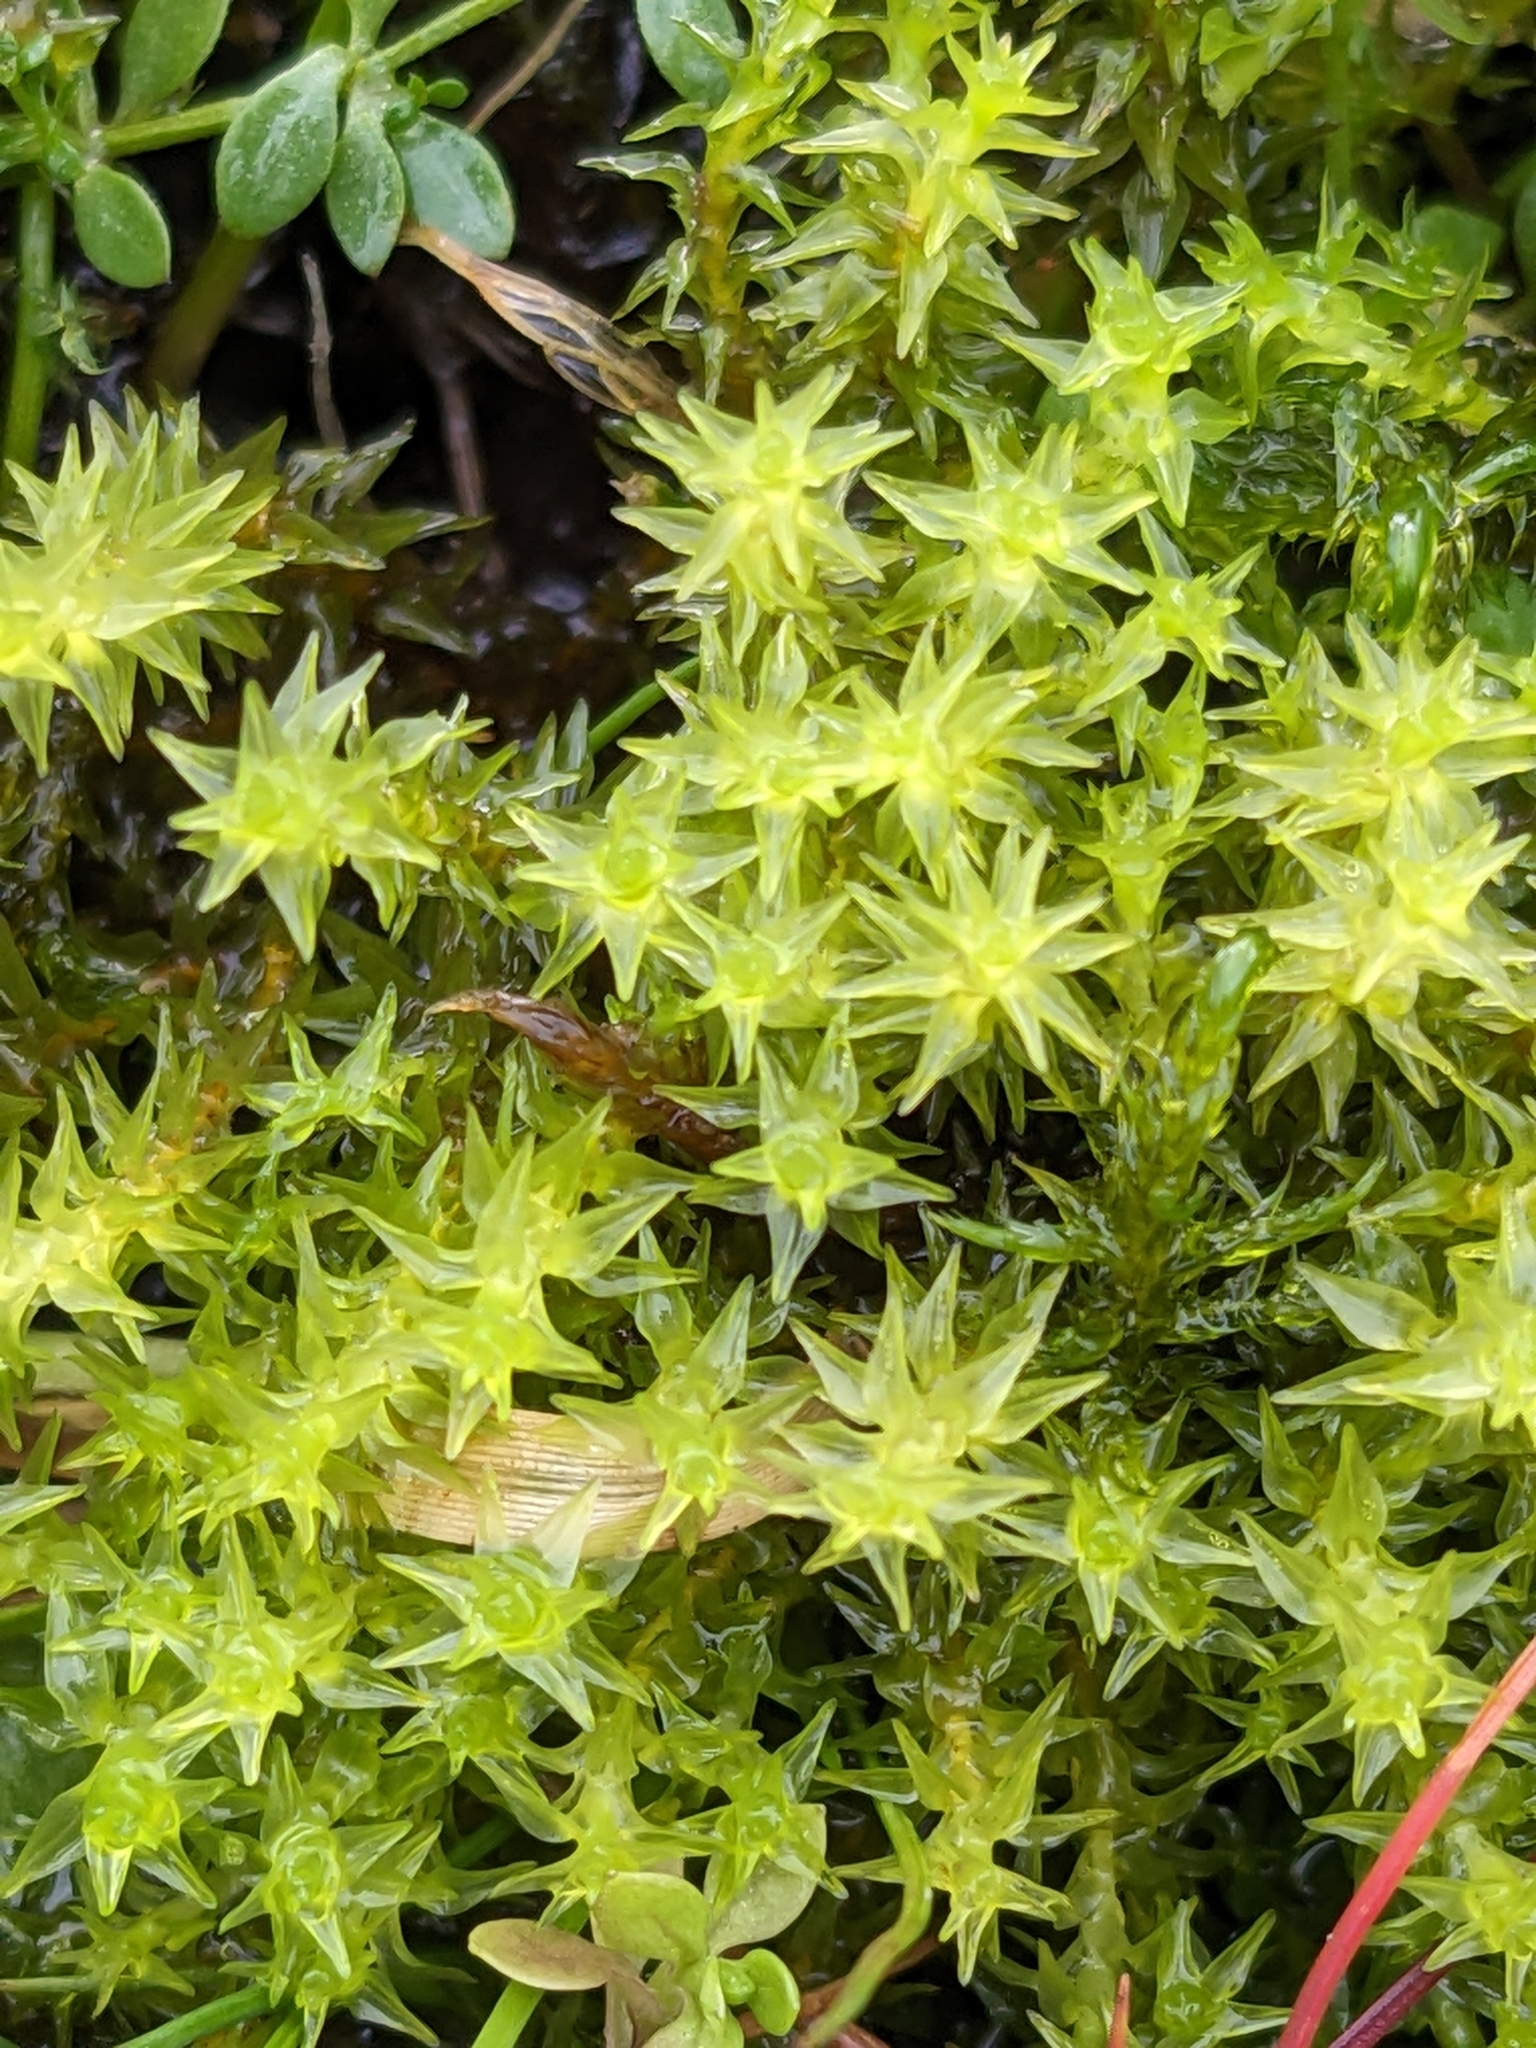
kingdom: Plantae
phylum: Bryophyta
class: Bryopsida
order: Dicranales
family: Aongstroemiaceae
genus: Diobelonella
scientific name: Diobelonella palustris
